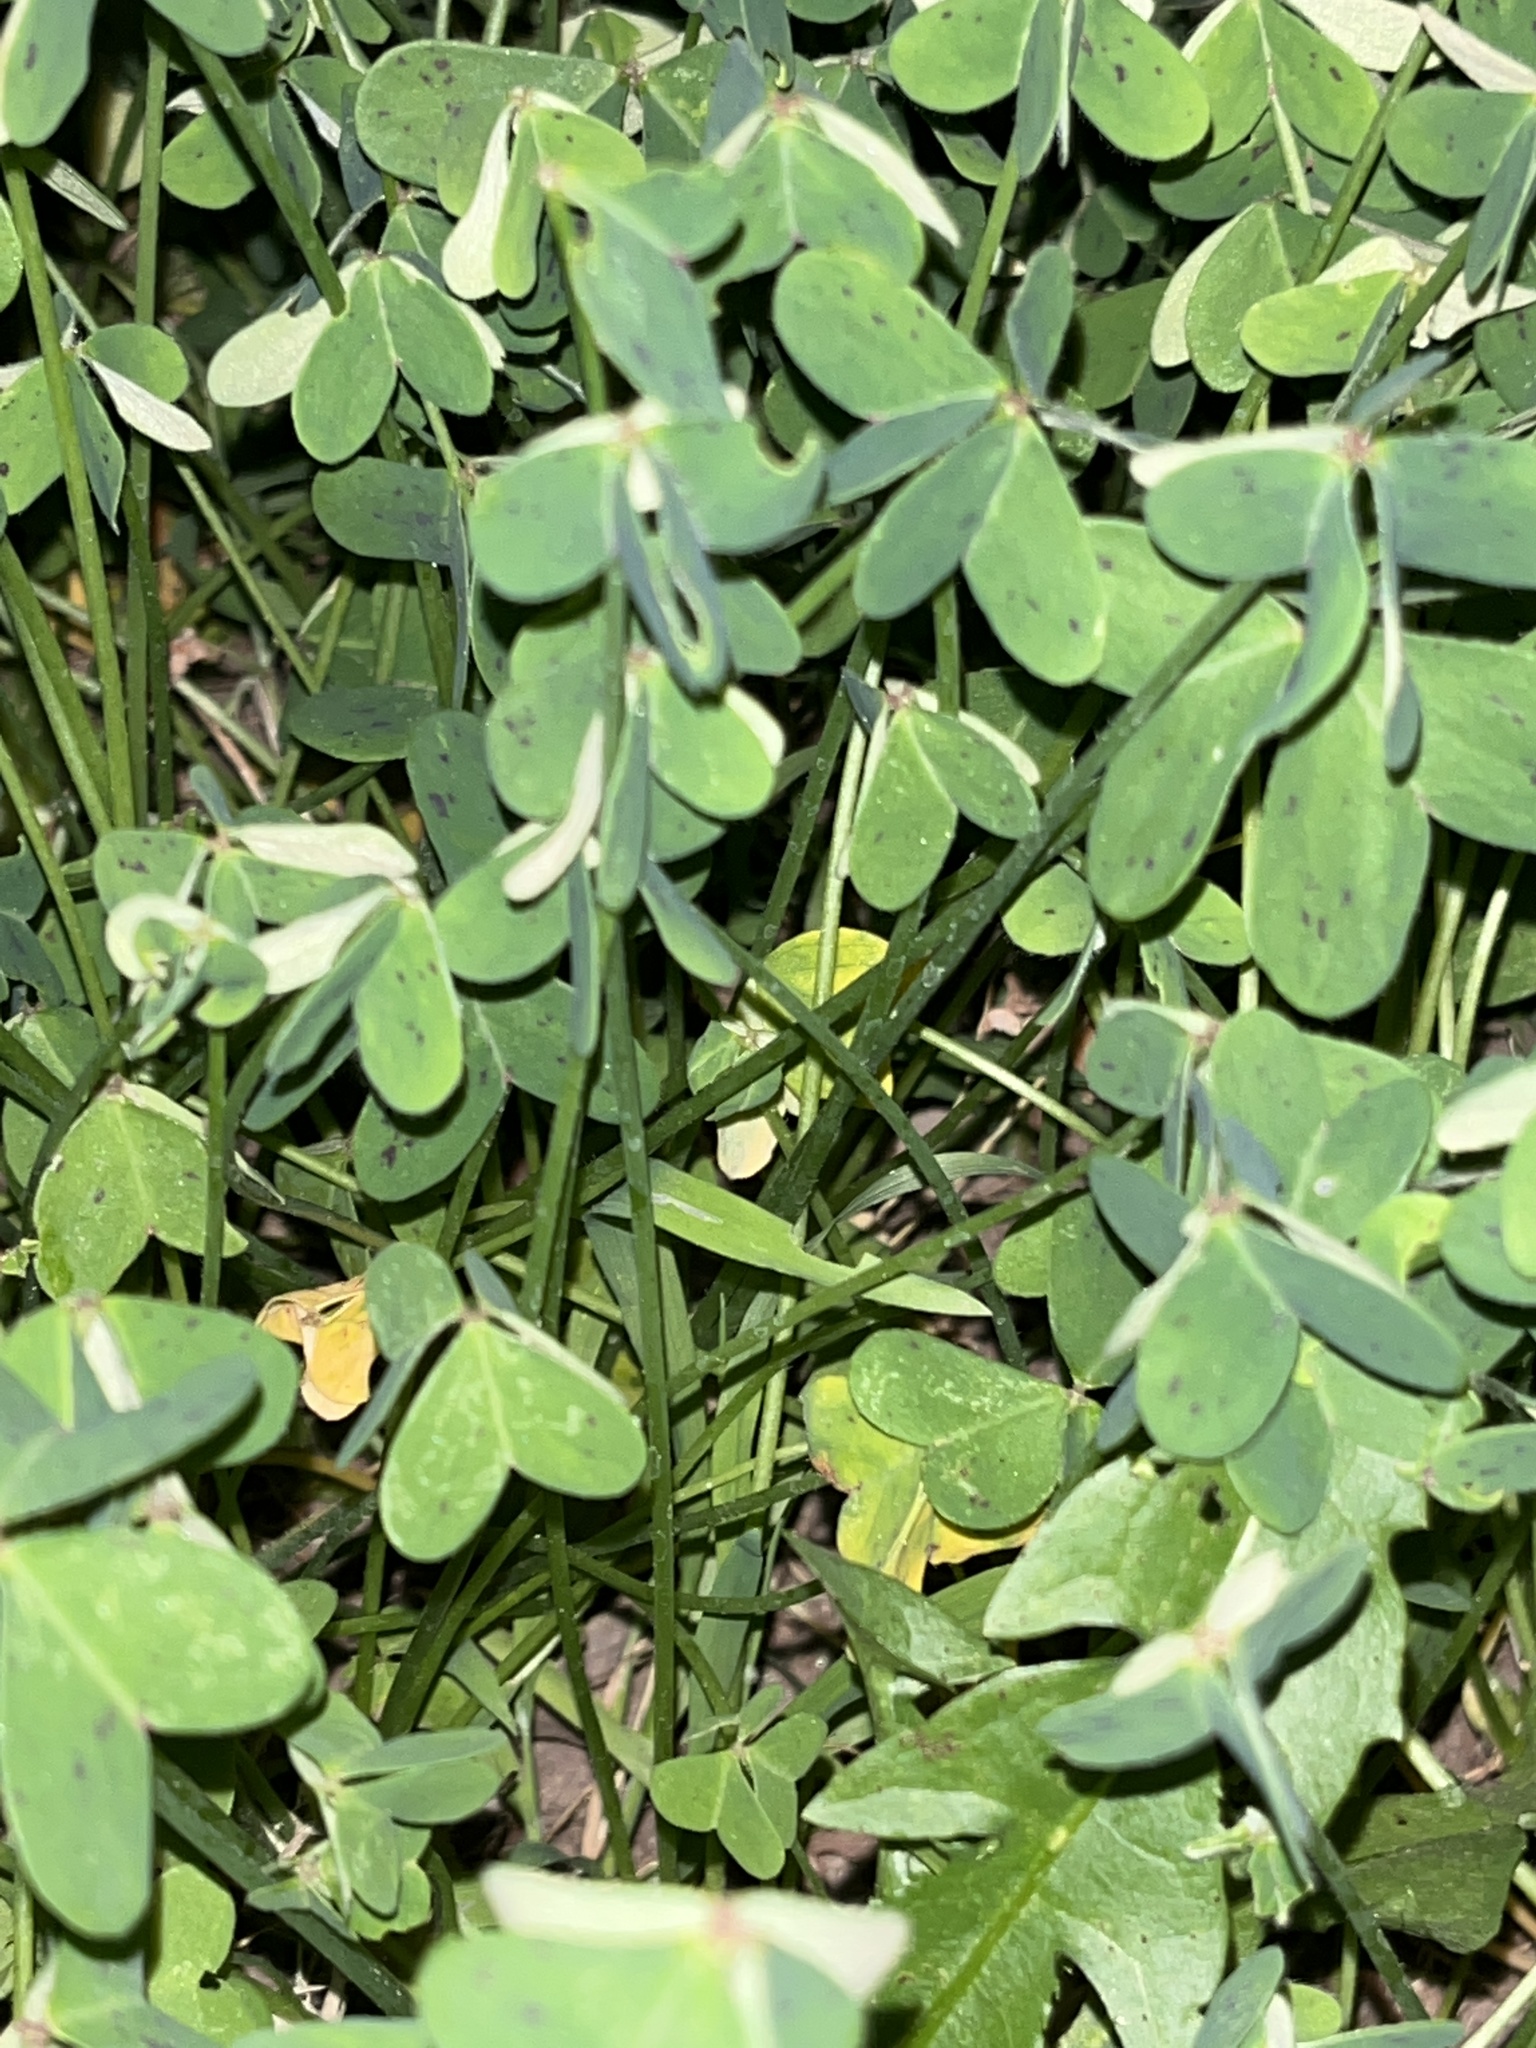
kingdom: Plantae
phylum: Tracheophyta
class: Magnoliopsida
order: Oxalidales
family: Oxalidaceae
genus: Oxalis
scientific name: Oxalis pes-caprae
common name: Bermuda-buttercup
